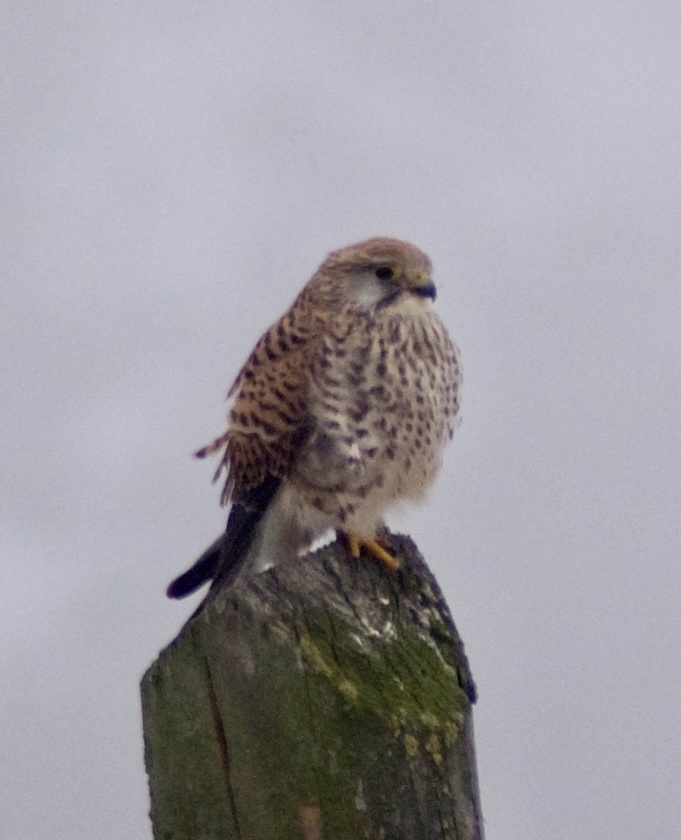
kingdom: Animalia
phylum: Chordata
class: Aves
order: Falconiformes
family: Falconidae
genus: Falco
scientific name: Falco tinnunculus
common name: Common kestrel
